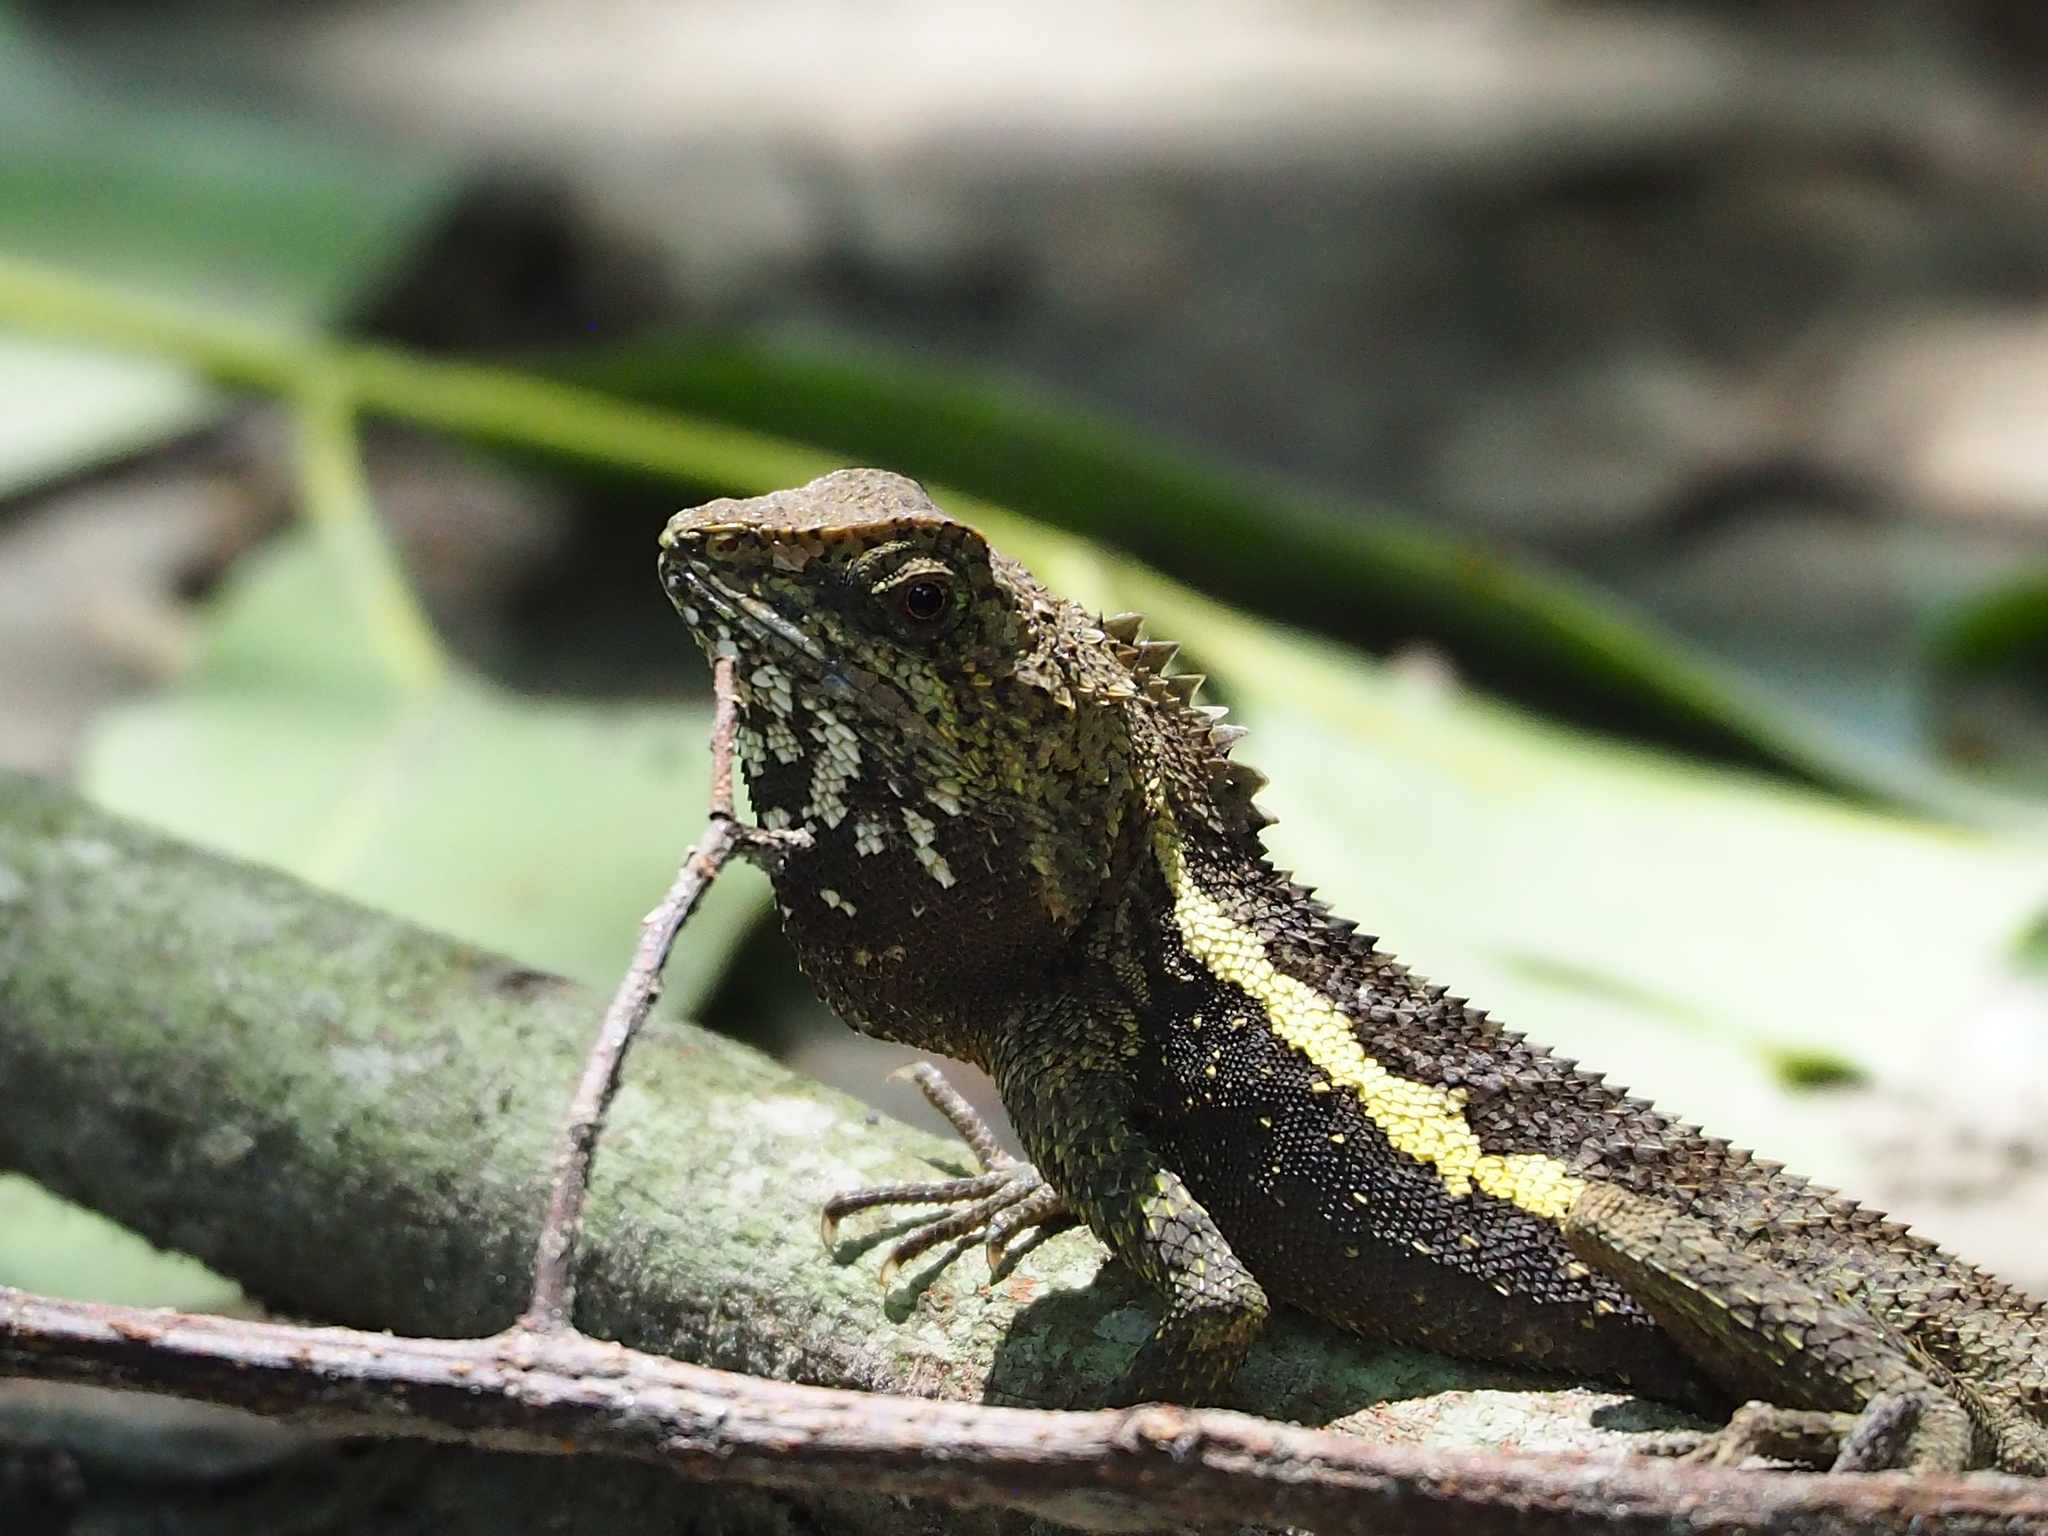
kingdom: Animalia
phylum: Chordata
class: Squamata
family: Agamidae
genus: Diploderma
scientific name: Diploderma swinhonis
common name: Taiwan japalure
